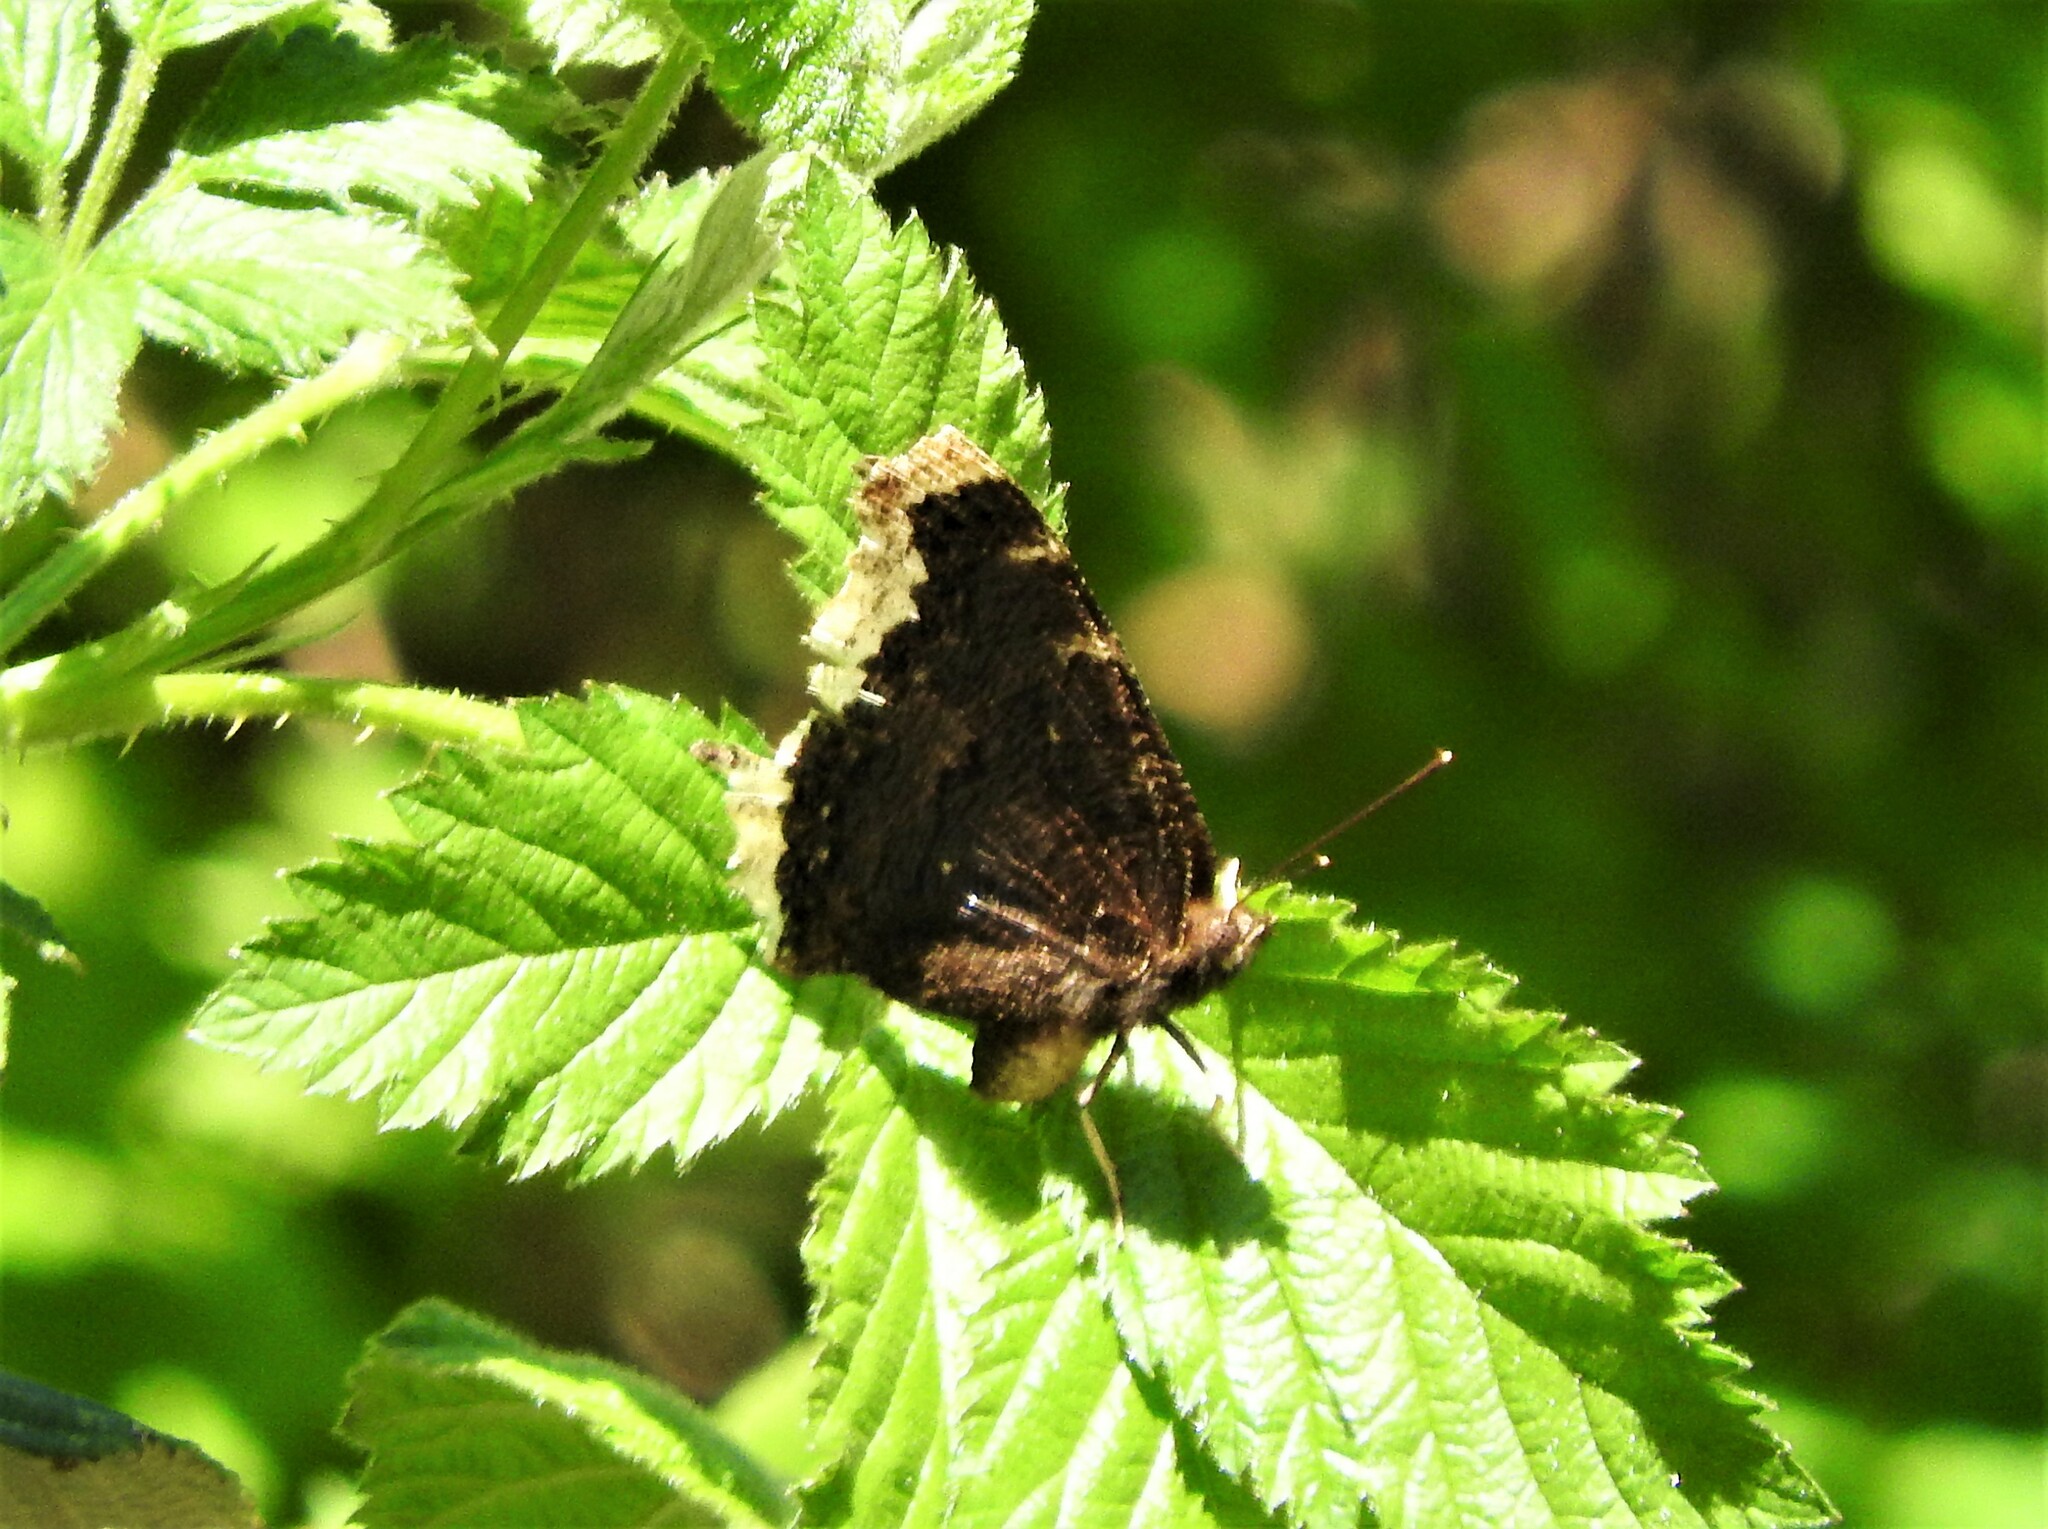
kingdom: Animalia
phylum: Arthropoda
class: Insecta
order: Lepidoptera
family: Nymphalidae
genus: Nymphalis
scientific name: Nymphalis antiopa
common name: Camberwell beauty
